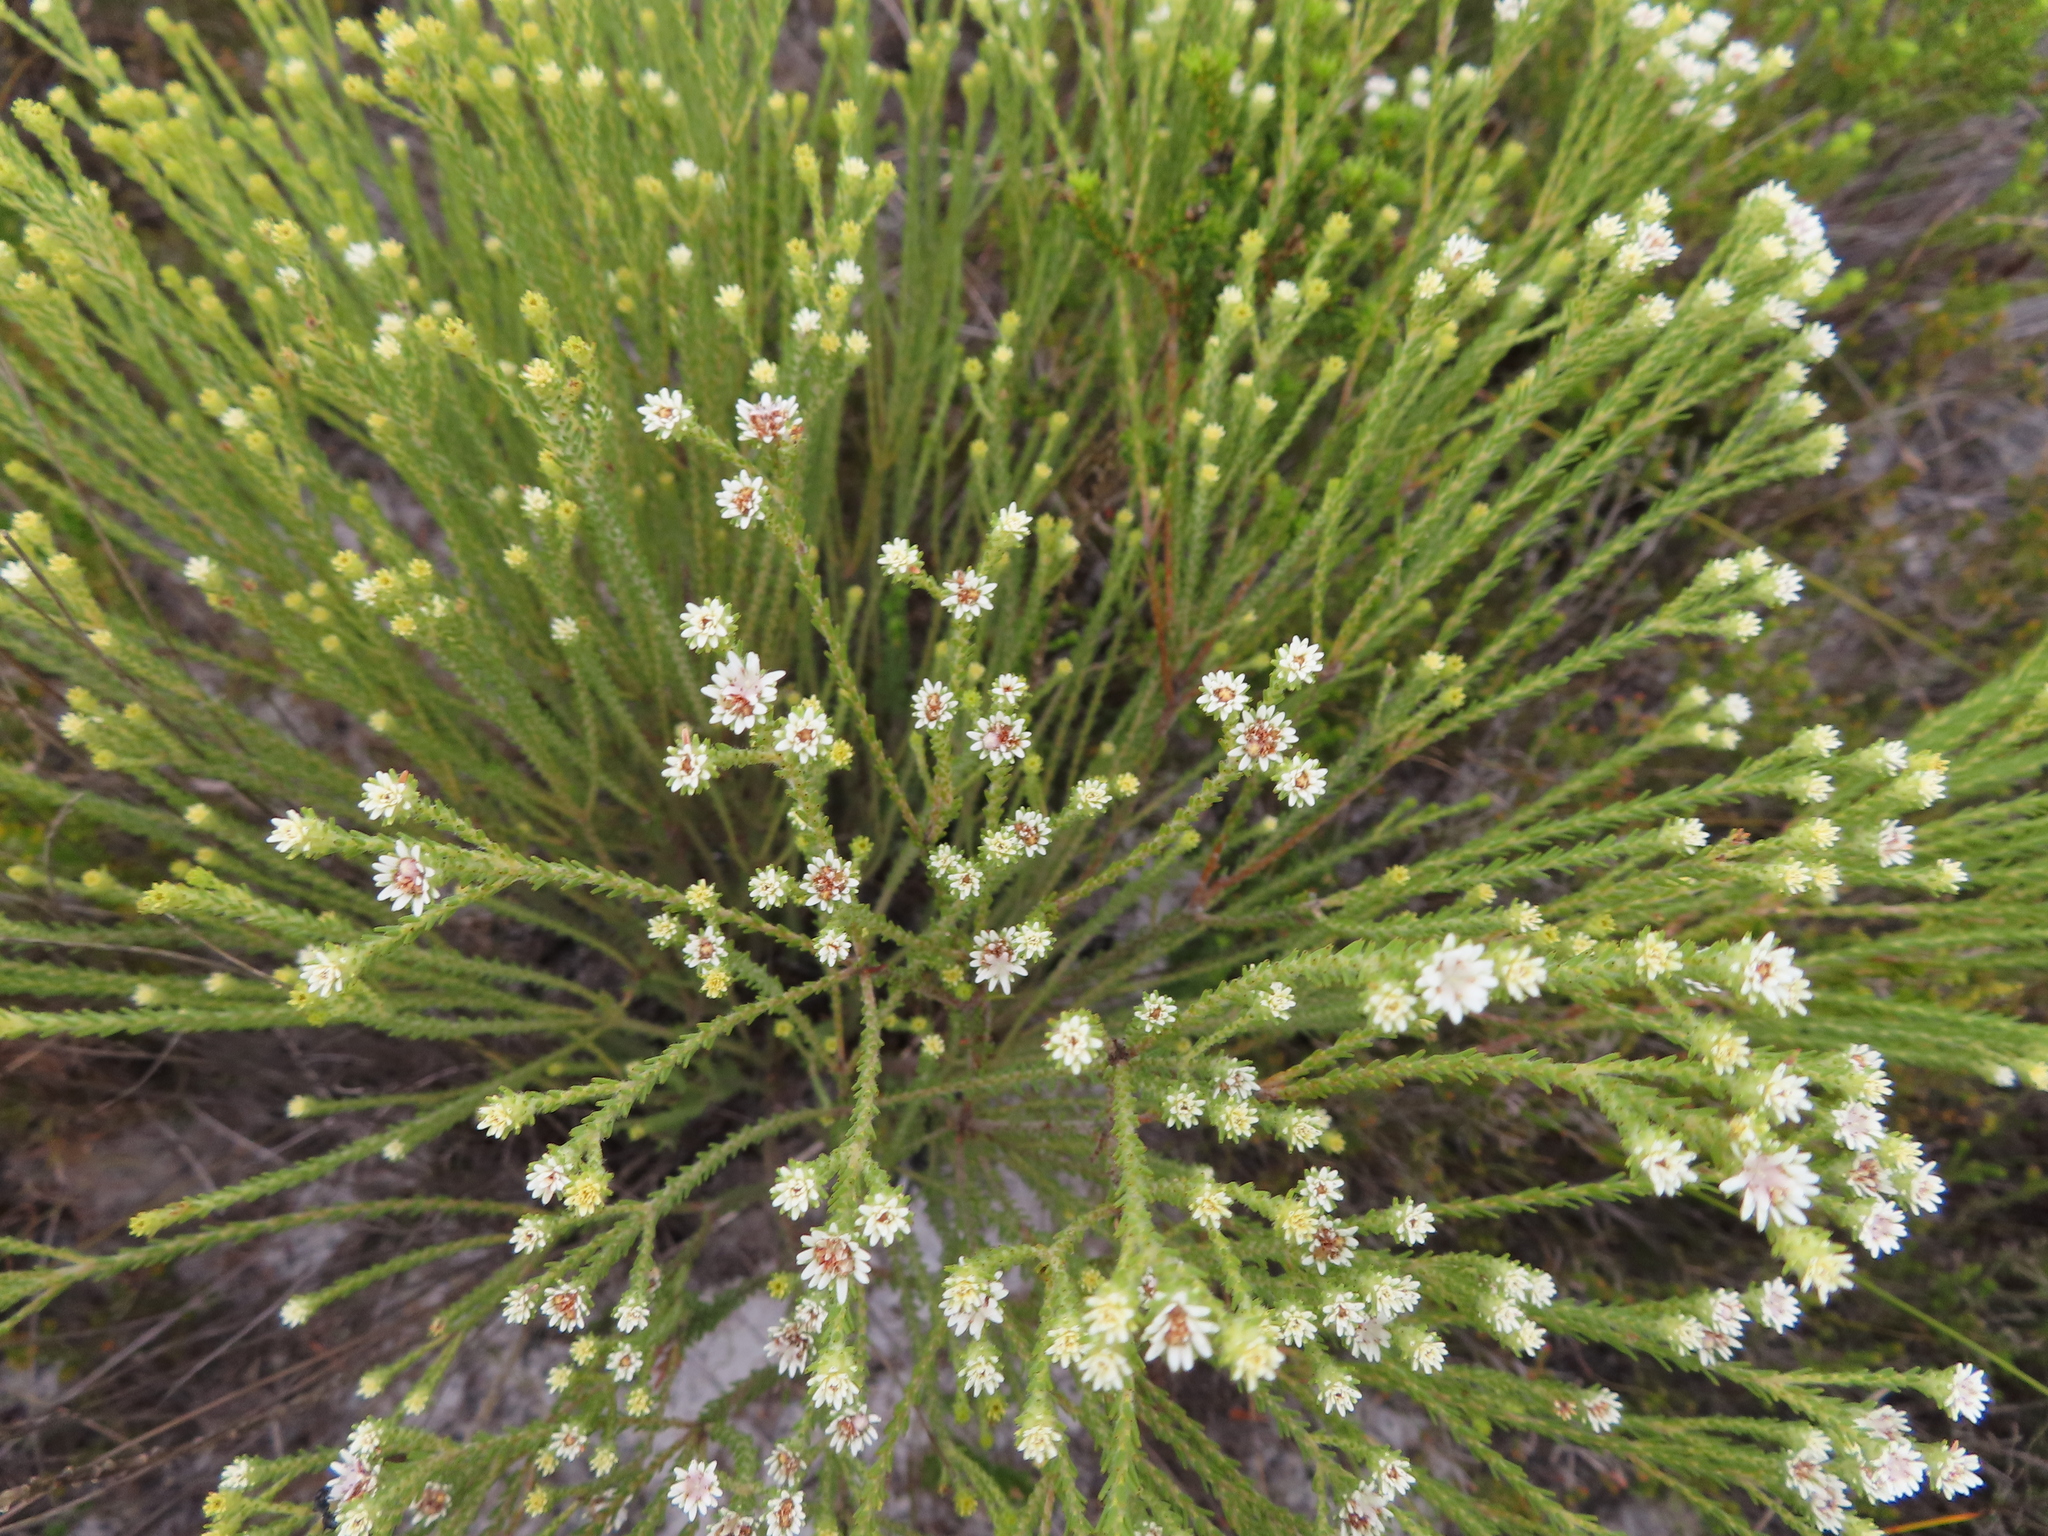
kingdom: Plantae
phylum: Tracheophyta
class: Magnoliopsida
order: Bruniales
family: Bruniaceae
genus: Staavia
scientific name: Staavia radiata
